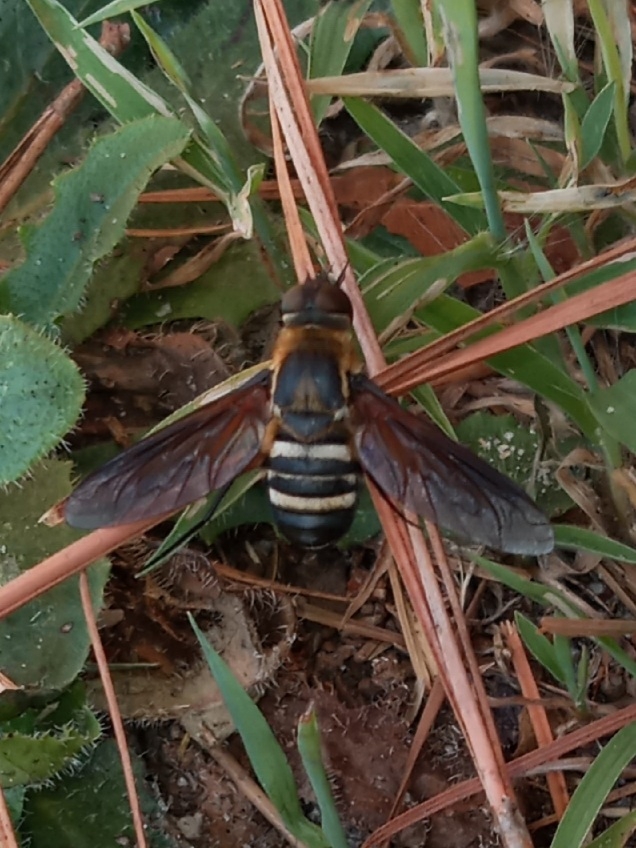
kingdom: Animalia
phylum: Arthropoda
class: Insecta
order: Diptera
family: Bombyliidae
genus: Exoprosopa
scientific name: Exoprosopa fasciata
